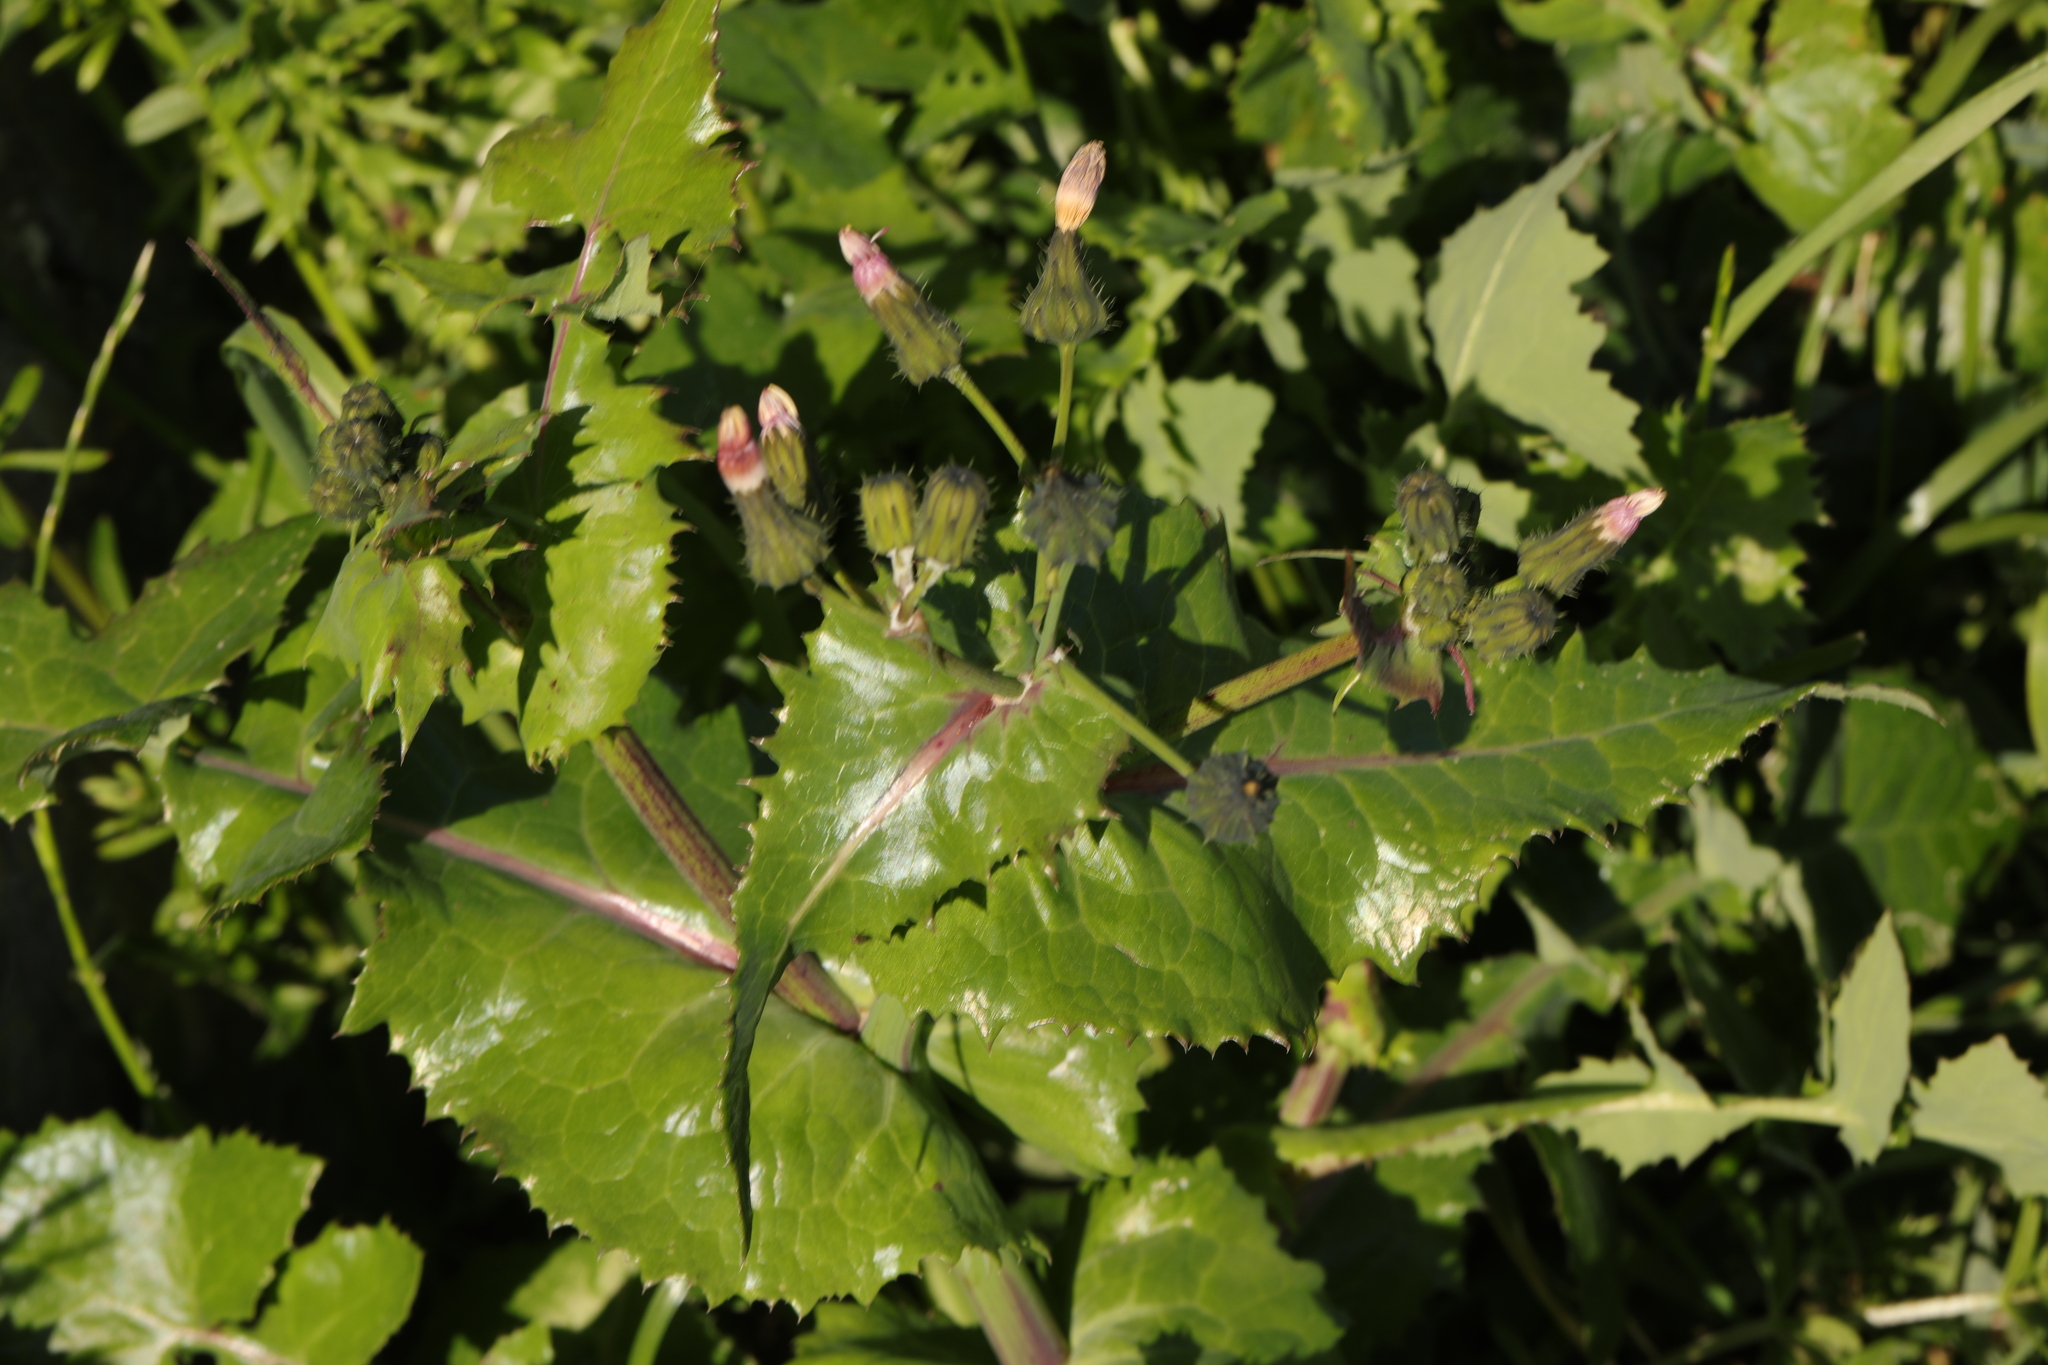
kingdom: Plantae
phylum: Tracheophyta
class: Magnoliopsida
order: Asterales
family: Asteraceae
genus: Sonchus
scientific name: Sonchus oleraceus
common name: Common sowthistle
